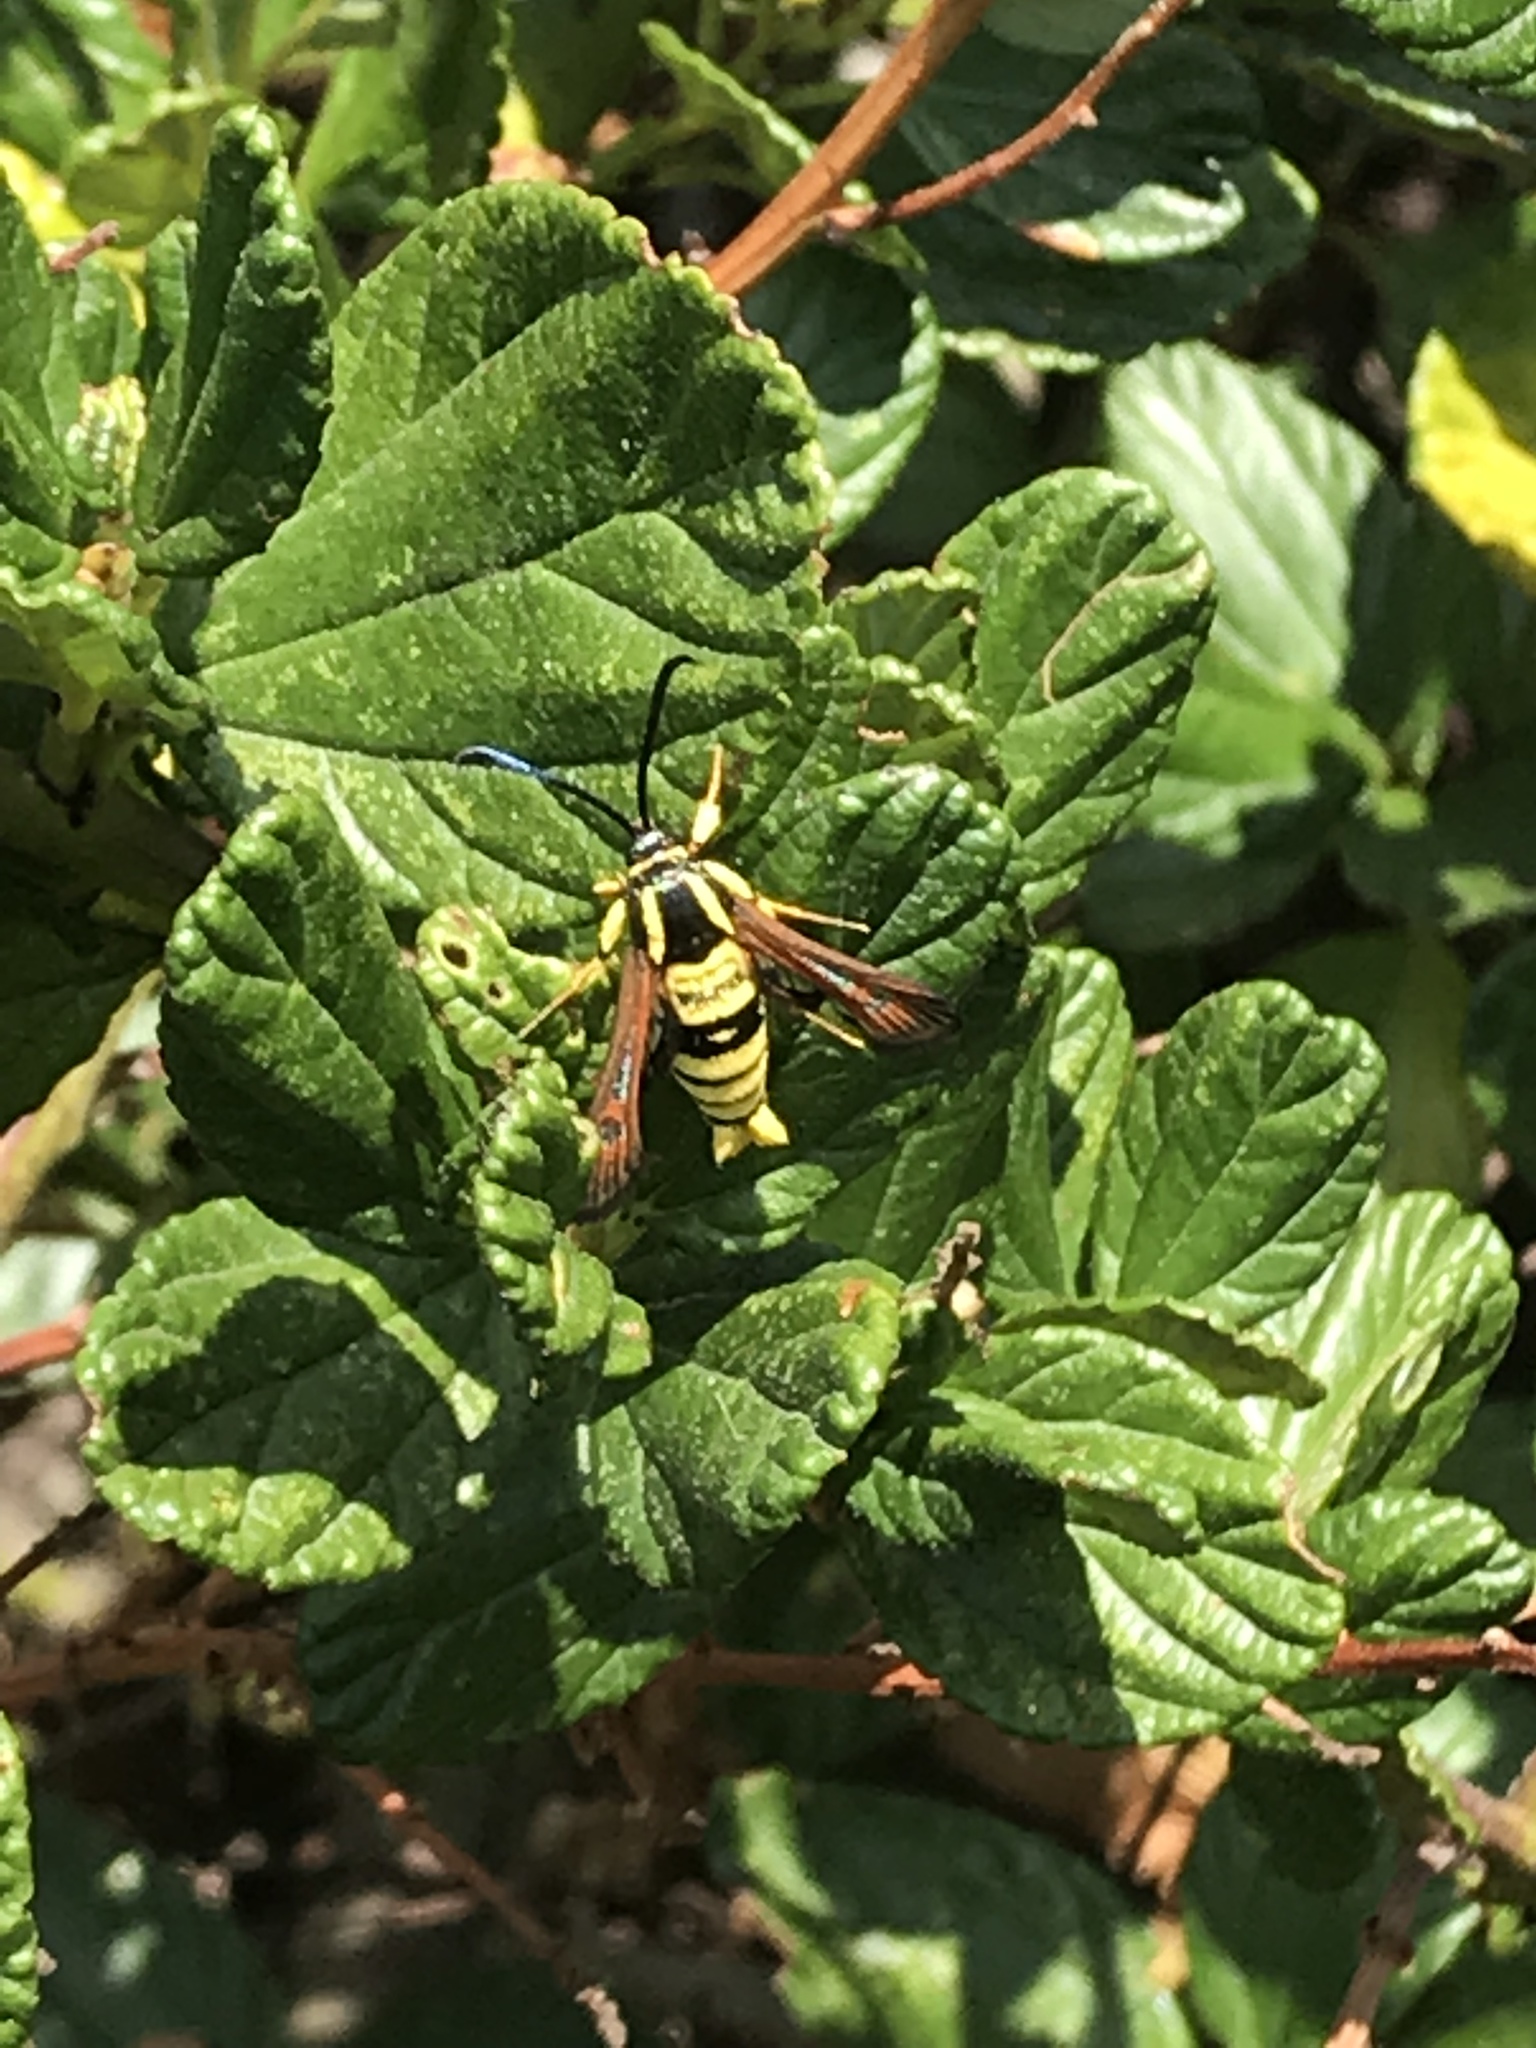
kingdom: Animalia
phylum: Arthropoda
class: Insecta
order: Lepidoptera
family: Sesiidae
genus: Synanthedon
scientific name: Synanthedon mellinipennis
